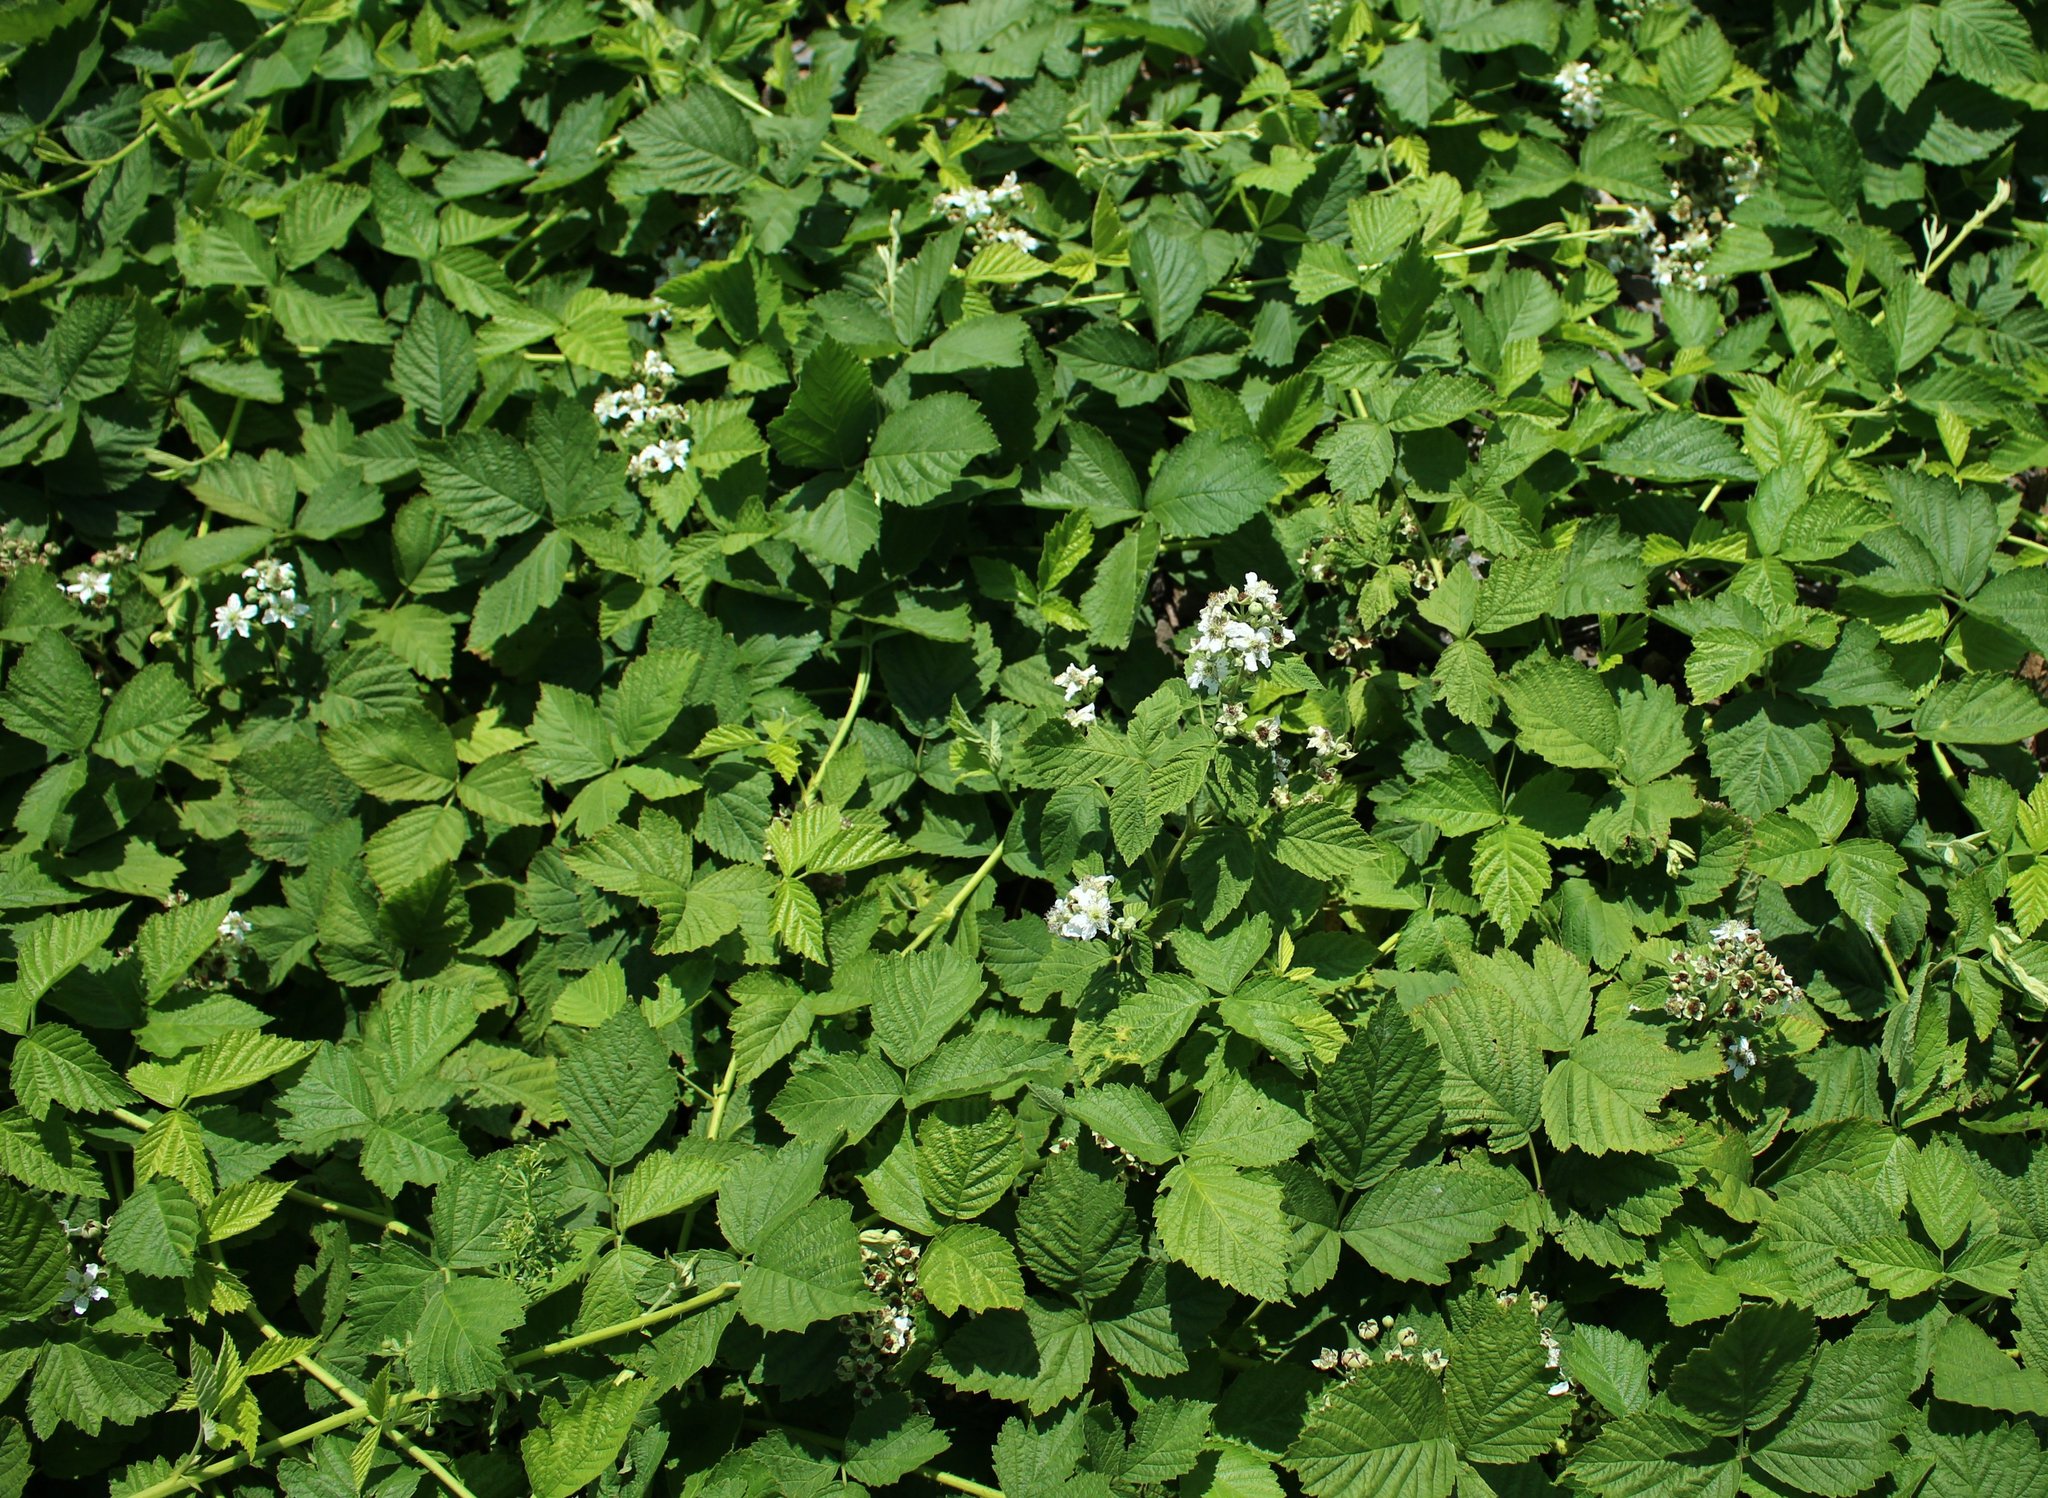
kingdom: Plantae
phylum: Tracheophyta
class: Magnoliopsida
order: Rosales
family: Rosaceae
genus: Rubus
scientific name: Rubus caesius
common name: Dewberry
